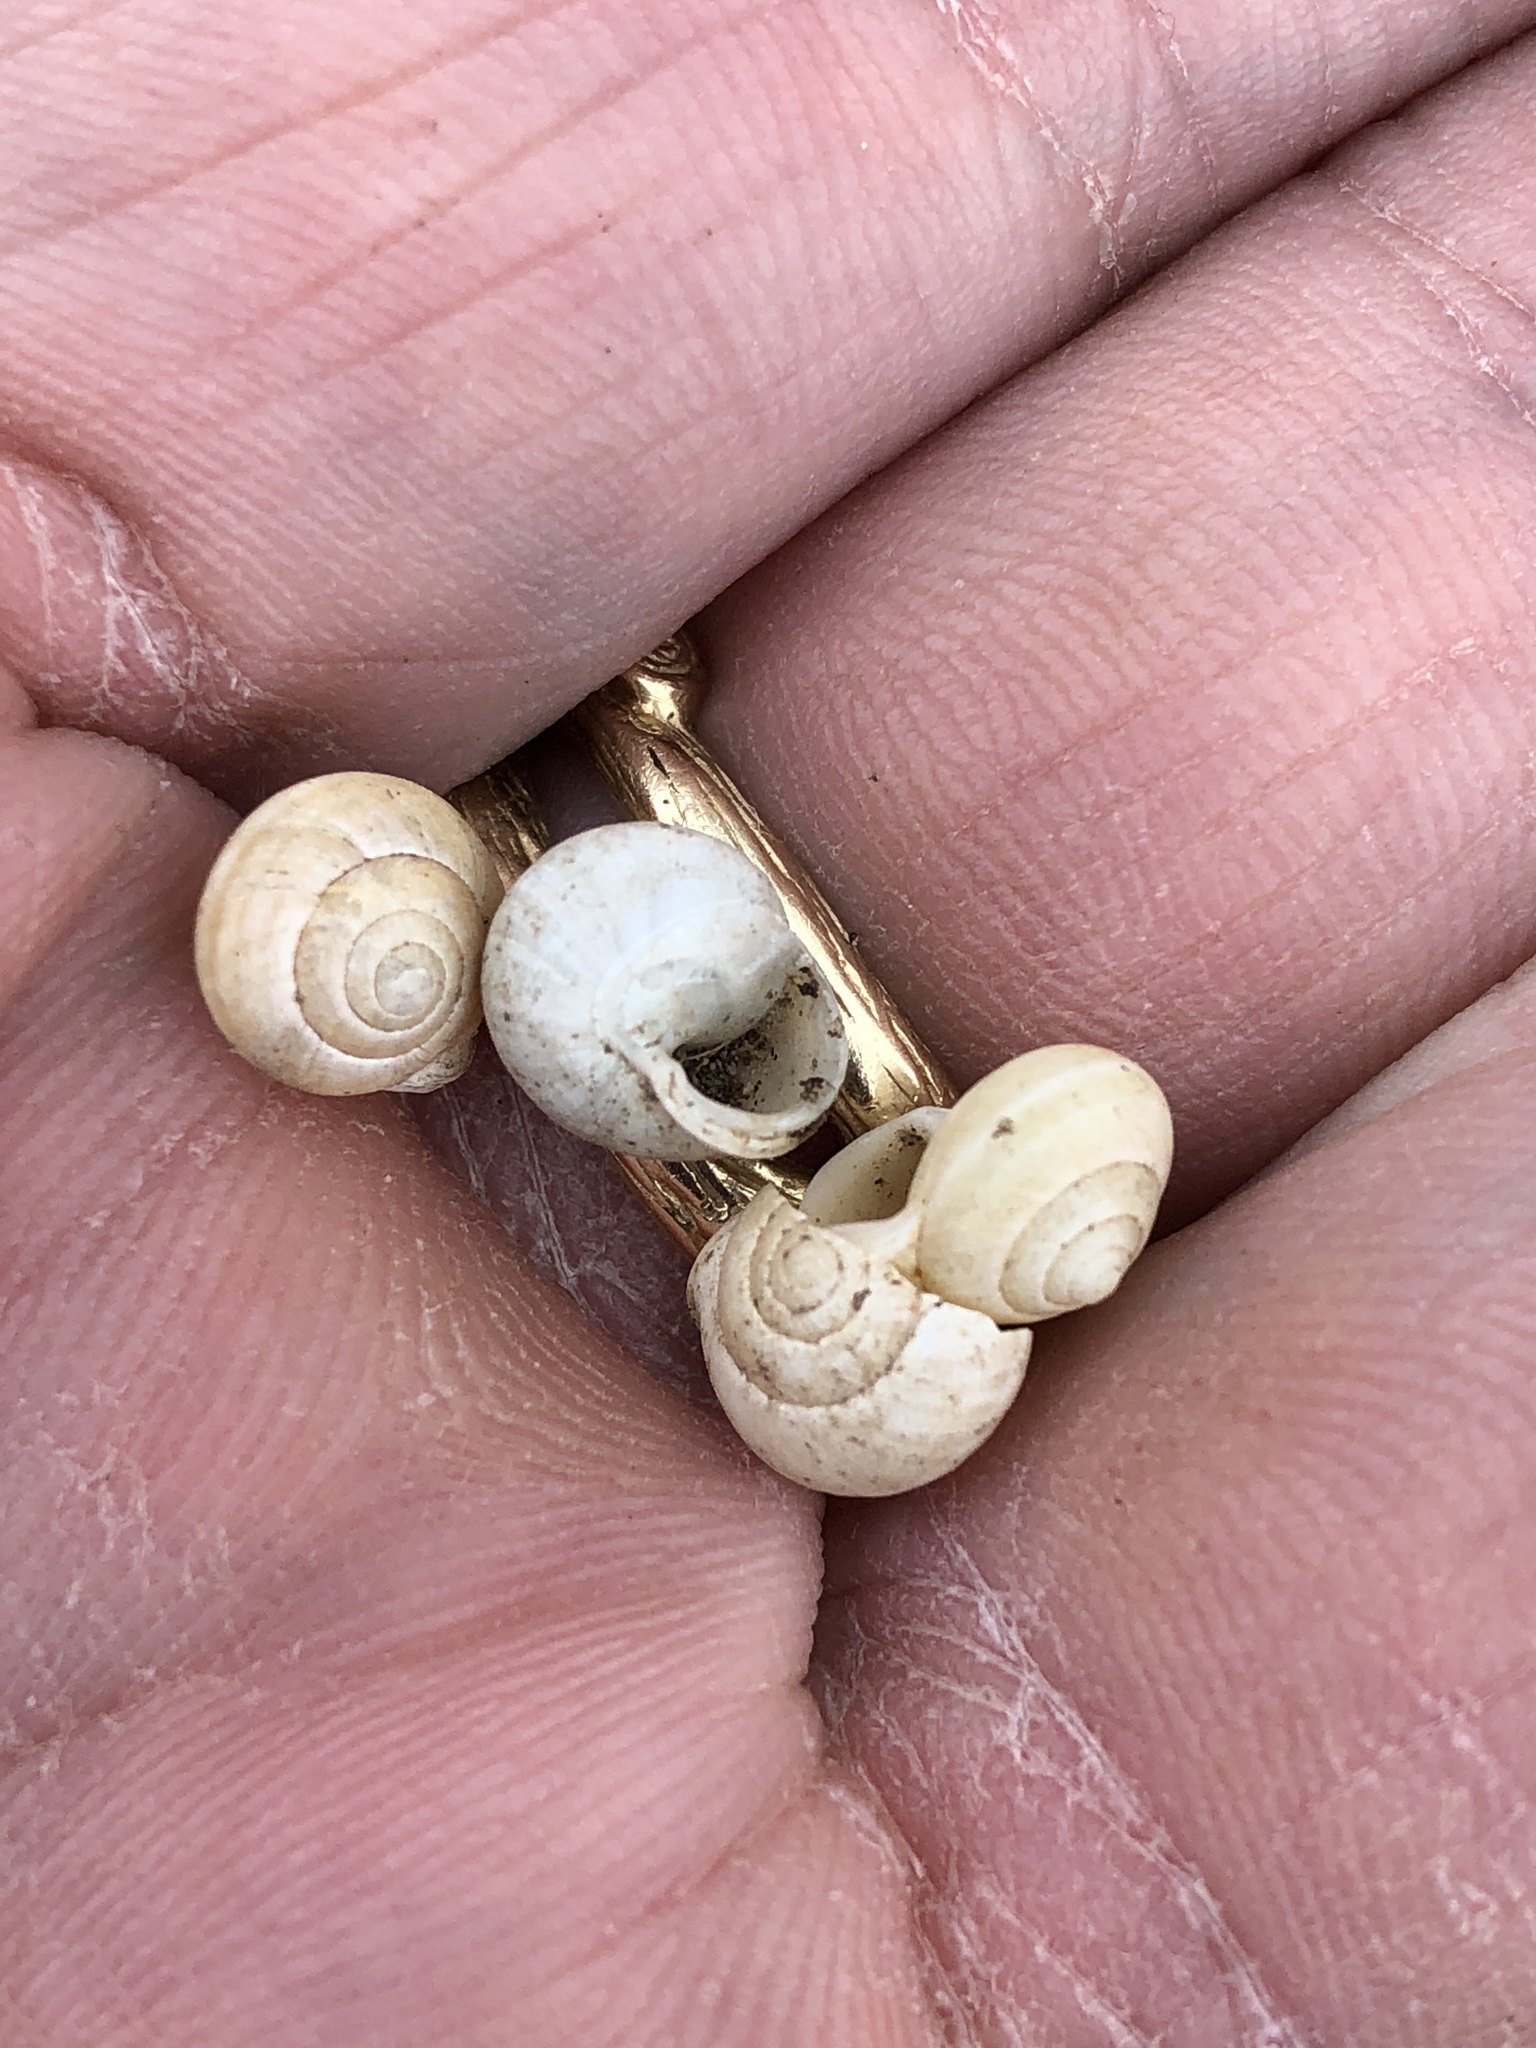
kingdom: Animalia
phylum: Mollusca
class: Gastropoda
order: Cycloneritida
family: Helicinidae
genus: Helicina
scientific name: Helicina orbiculata
